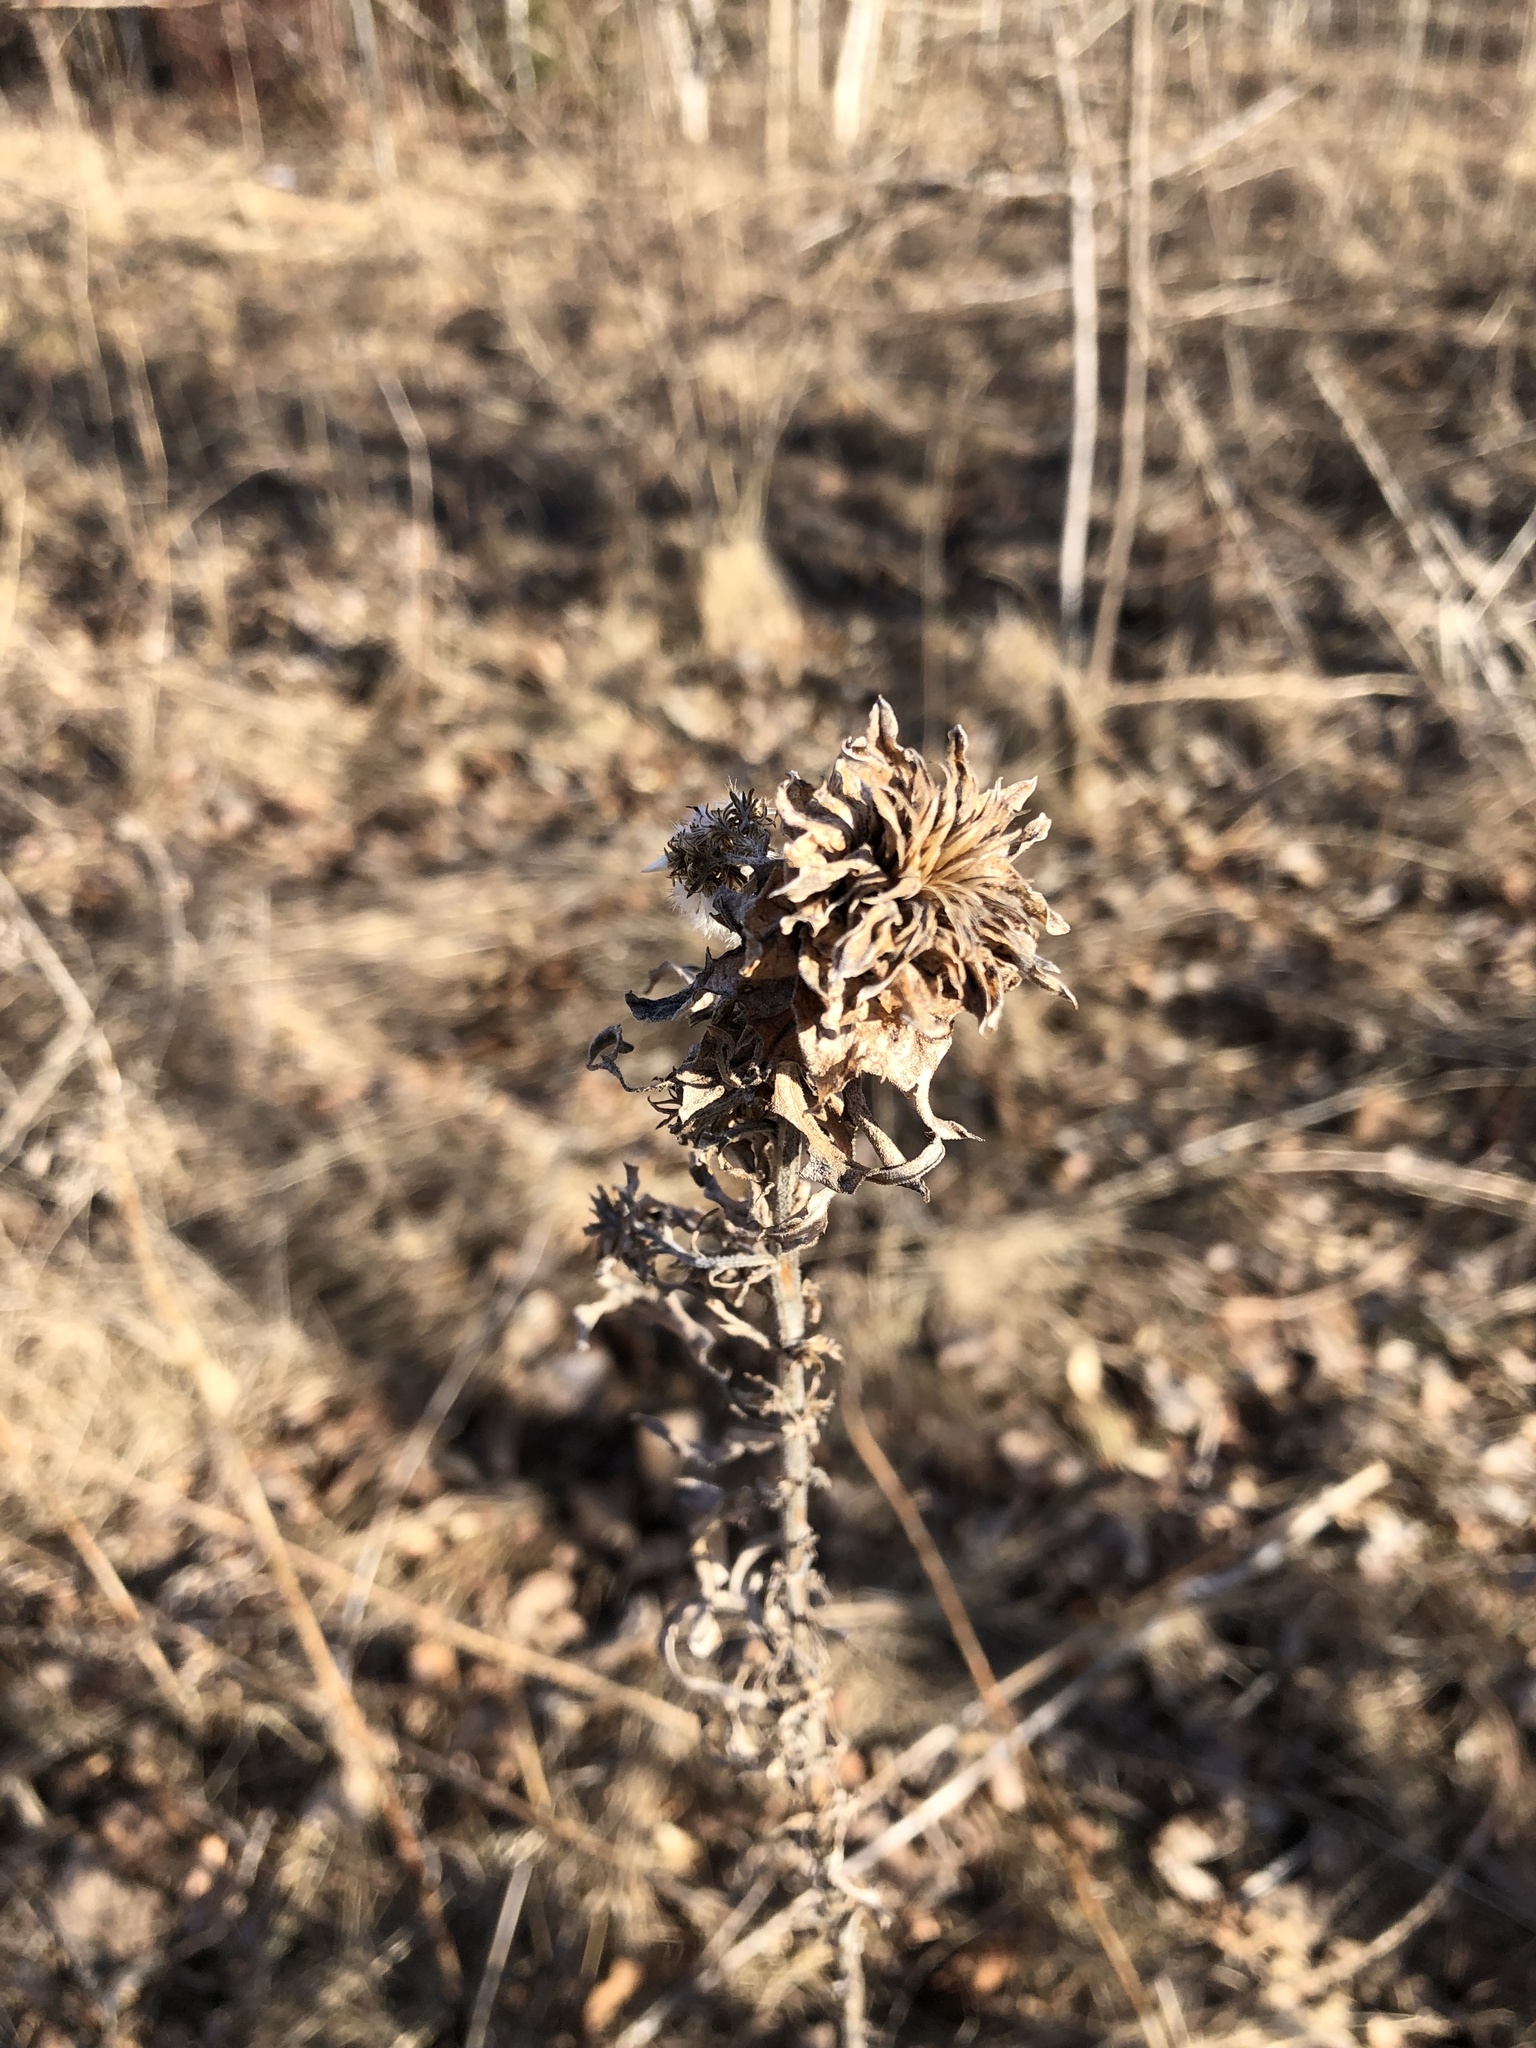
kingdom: Animalia
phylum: Arthropoda
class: Insecta
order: Diptera
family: Cecidomyiidae
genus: Rhopalomyia
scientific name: Rhopalomyia solidaginis
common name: Goldenrod bunch gall midge
